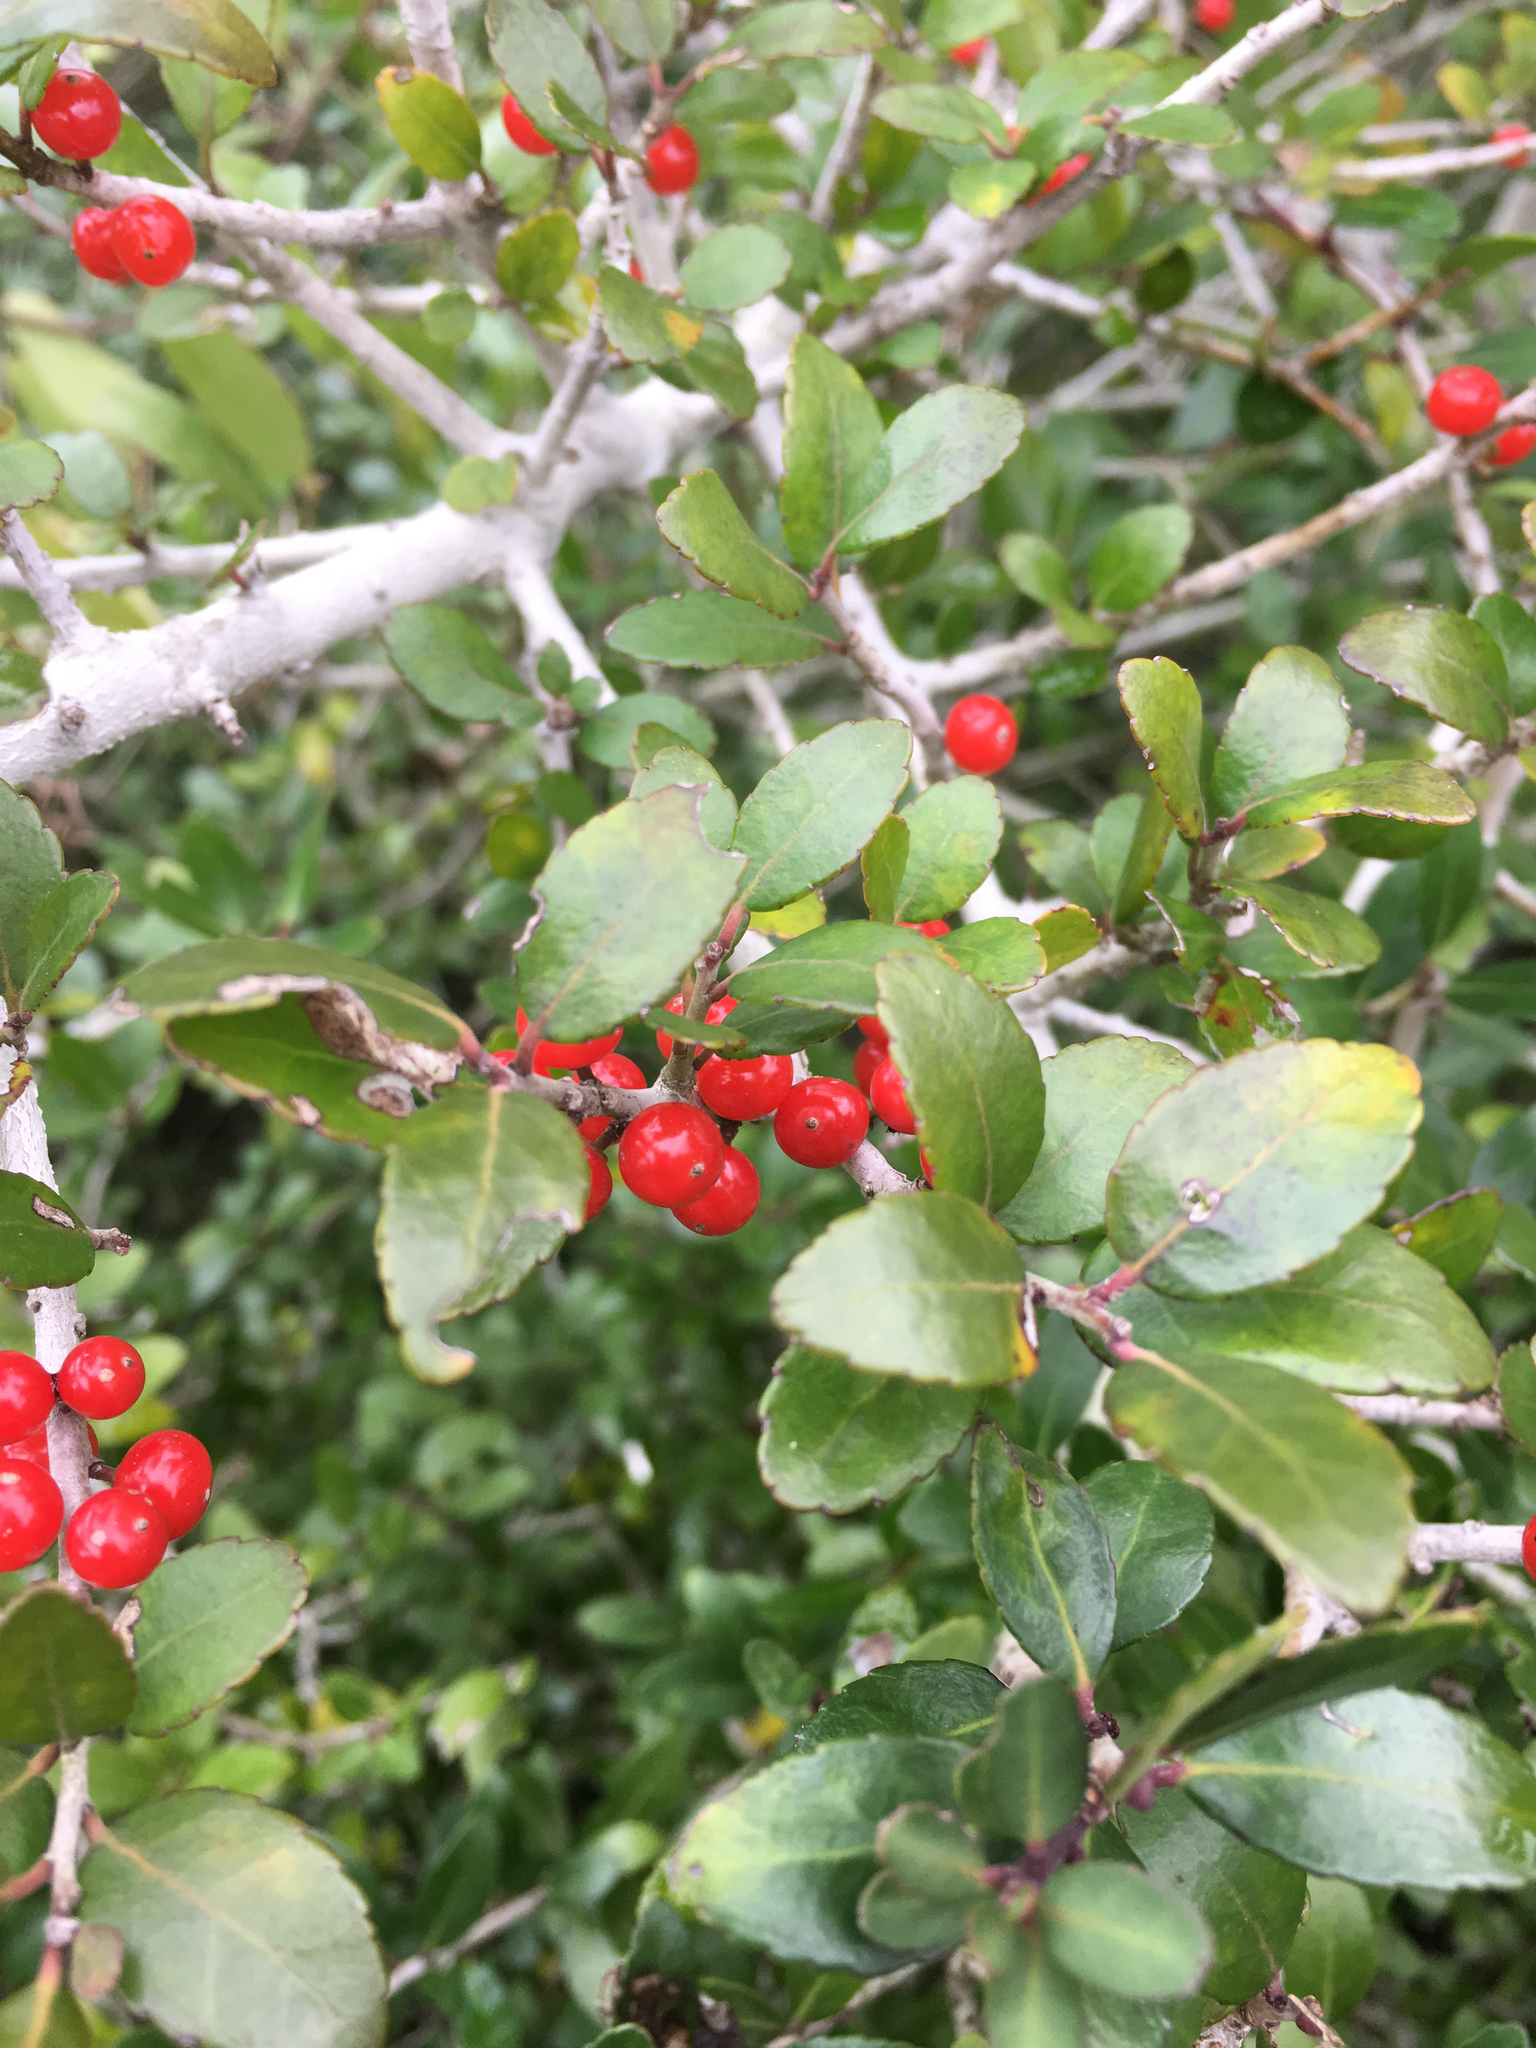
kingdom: Plantae
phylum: Tracheophyta
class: Magnoliopsida
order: Aquifoliales
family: Aquifoliaceae
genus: Ilex
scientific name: Ilex vomitoria
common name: Yaupon holly
